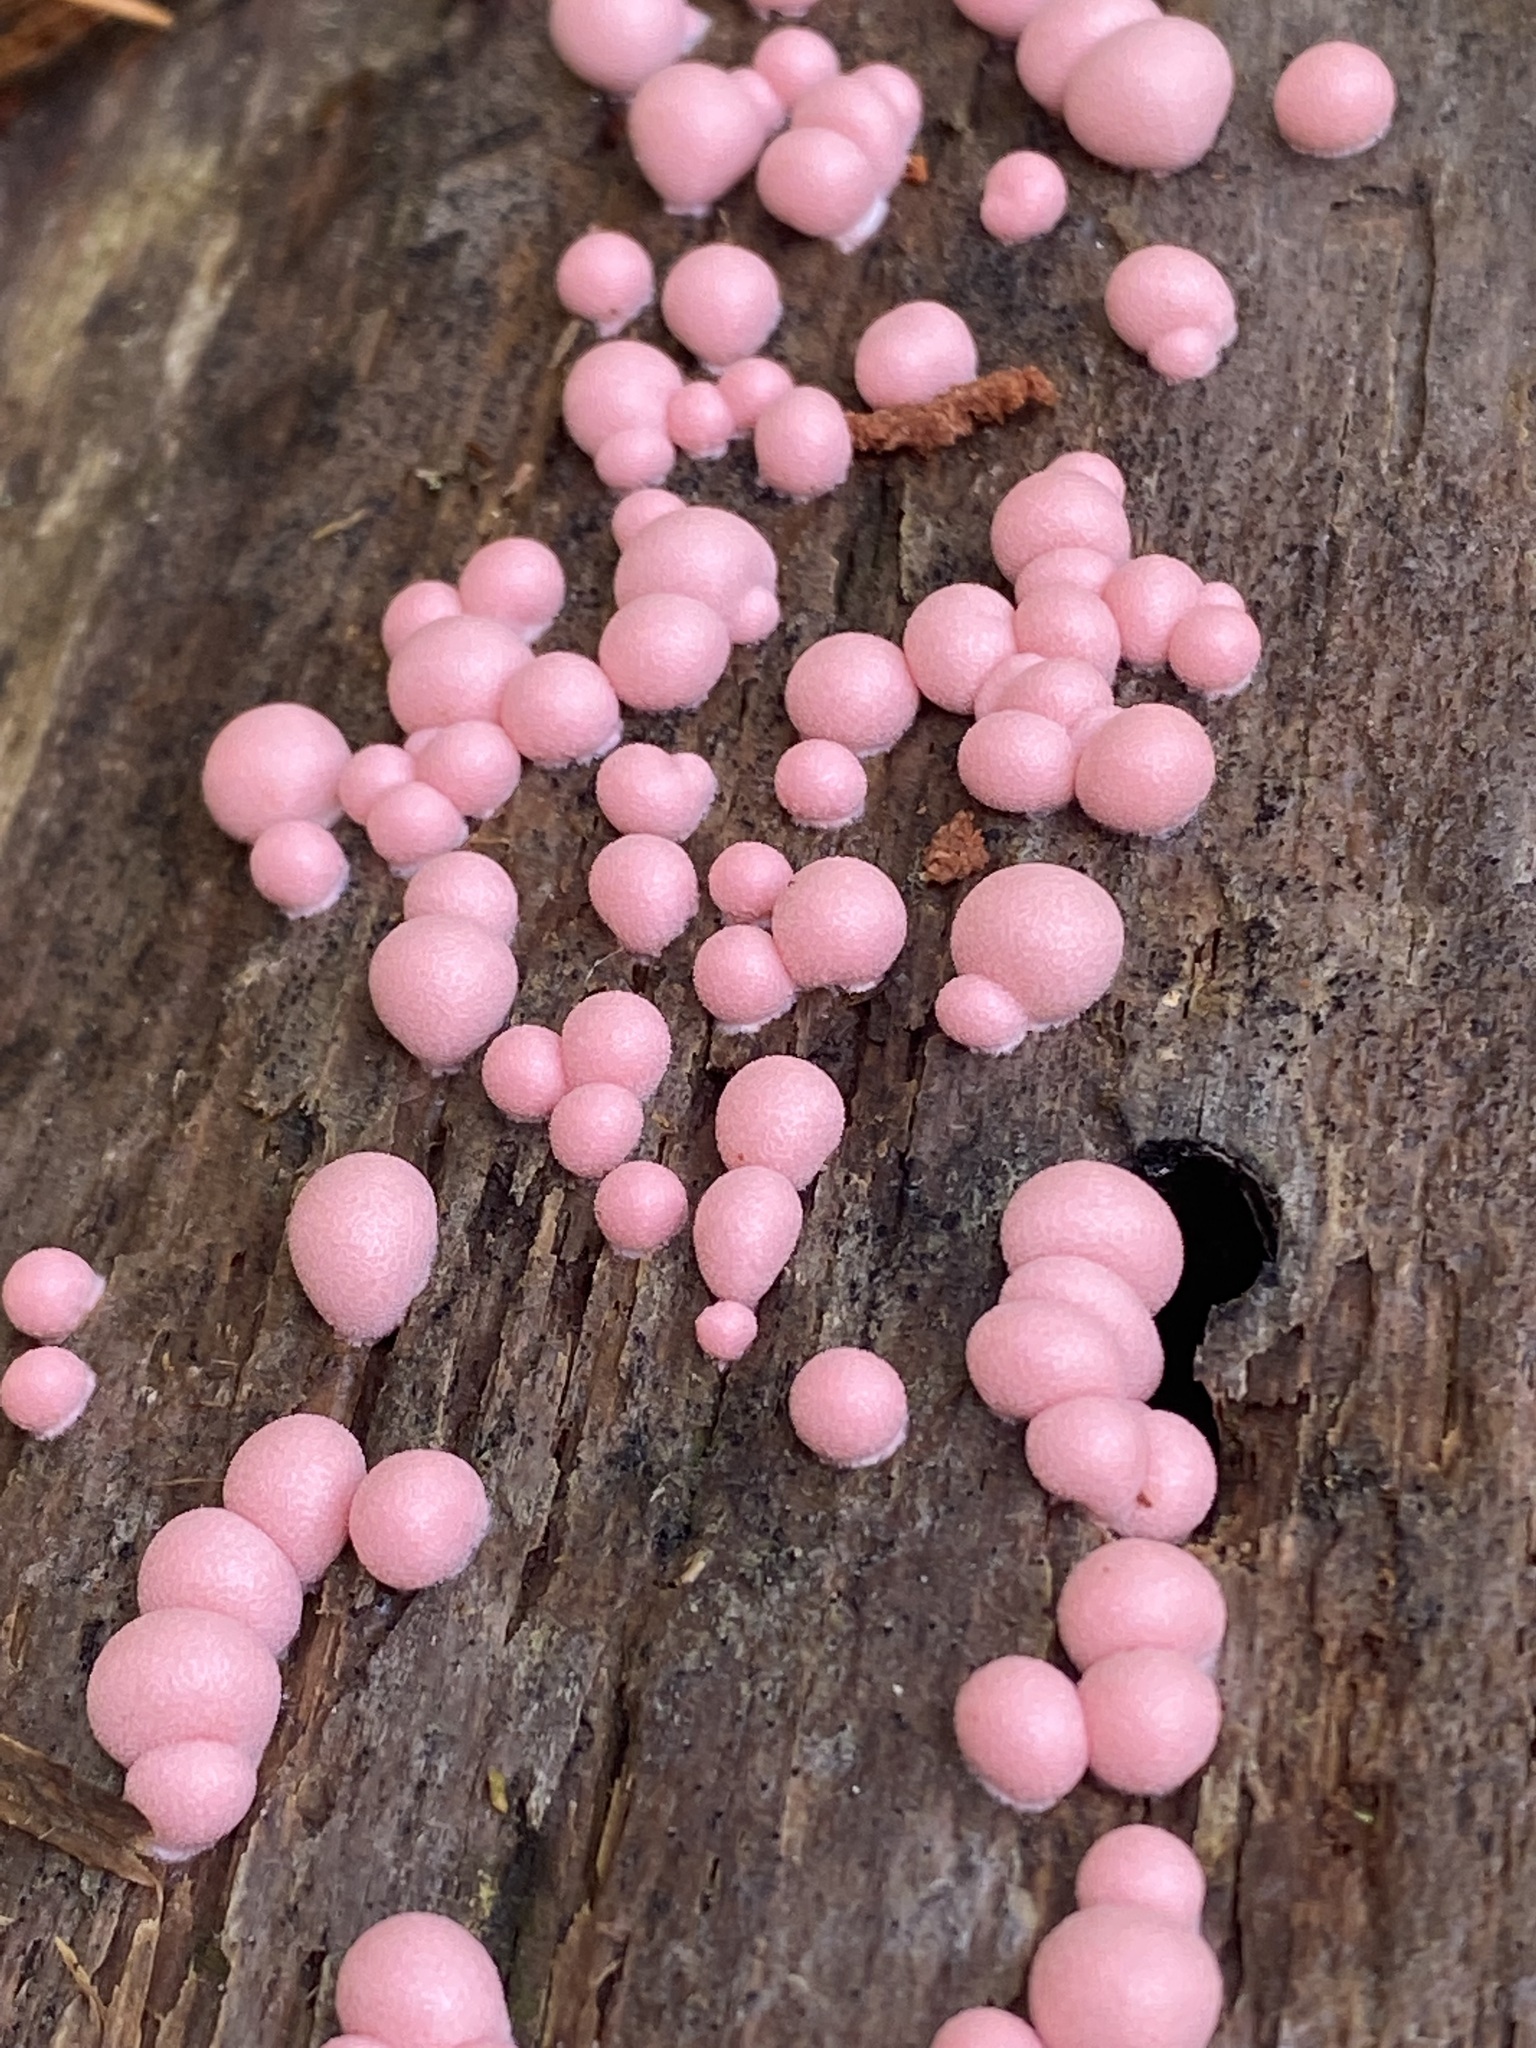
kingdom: Protozoa
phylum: Mycetozoa
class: Myxomycetes
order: Cribrariales
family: Tubiferaceae
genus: Lycogala
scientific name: Lycogala epidendrum
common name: Wolf's milk
